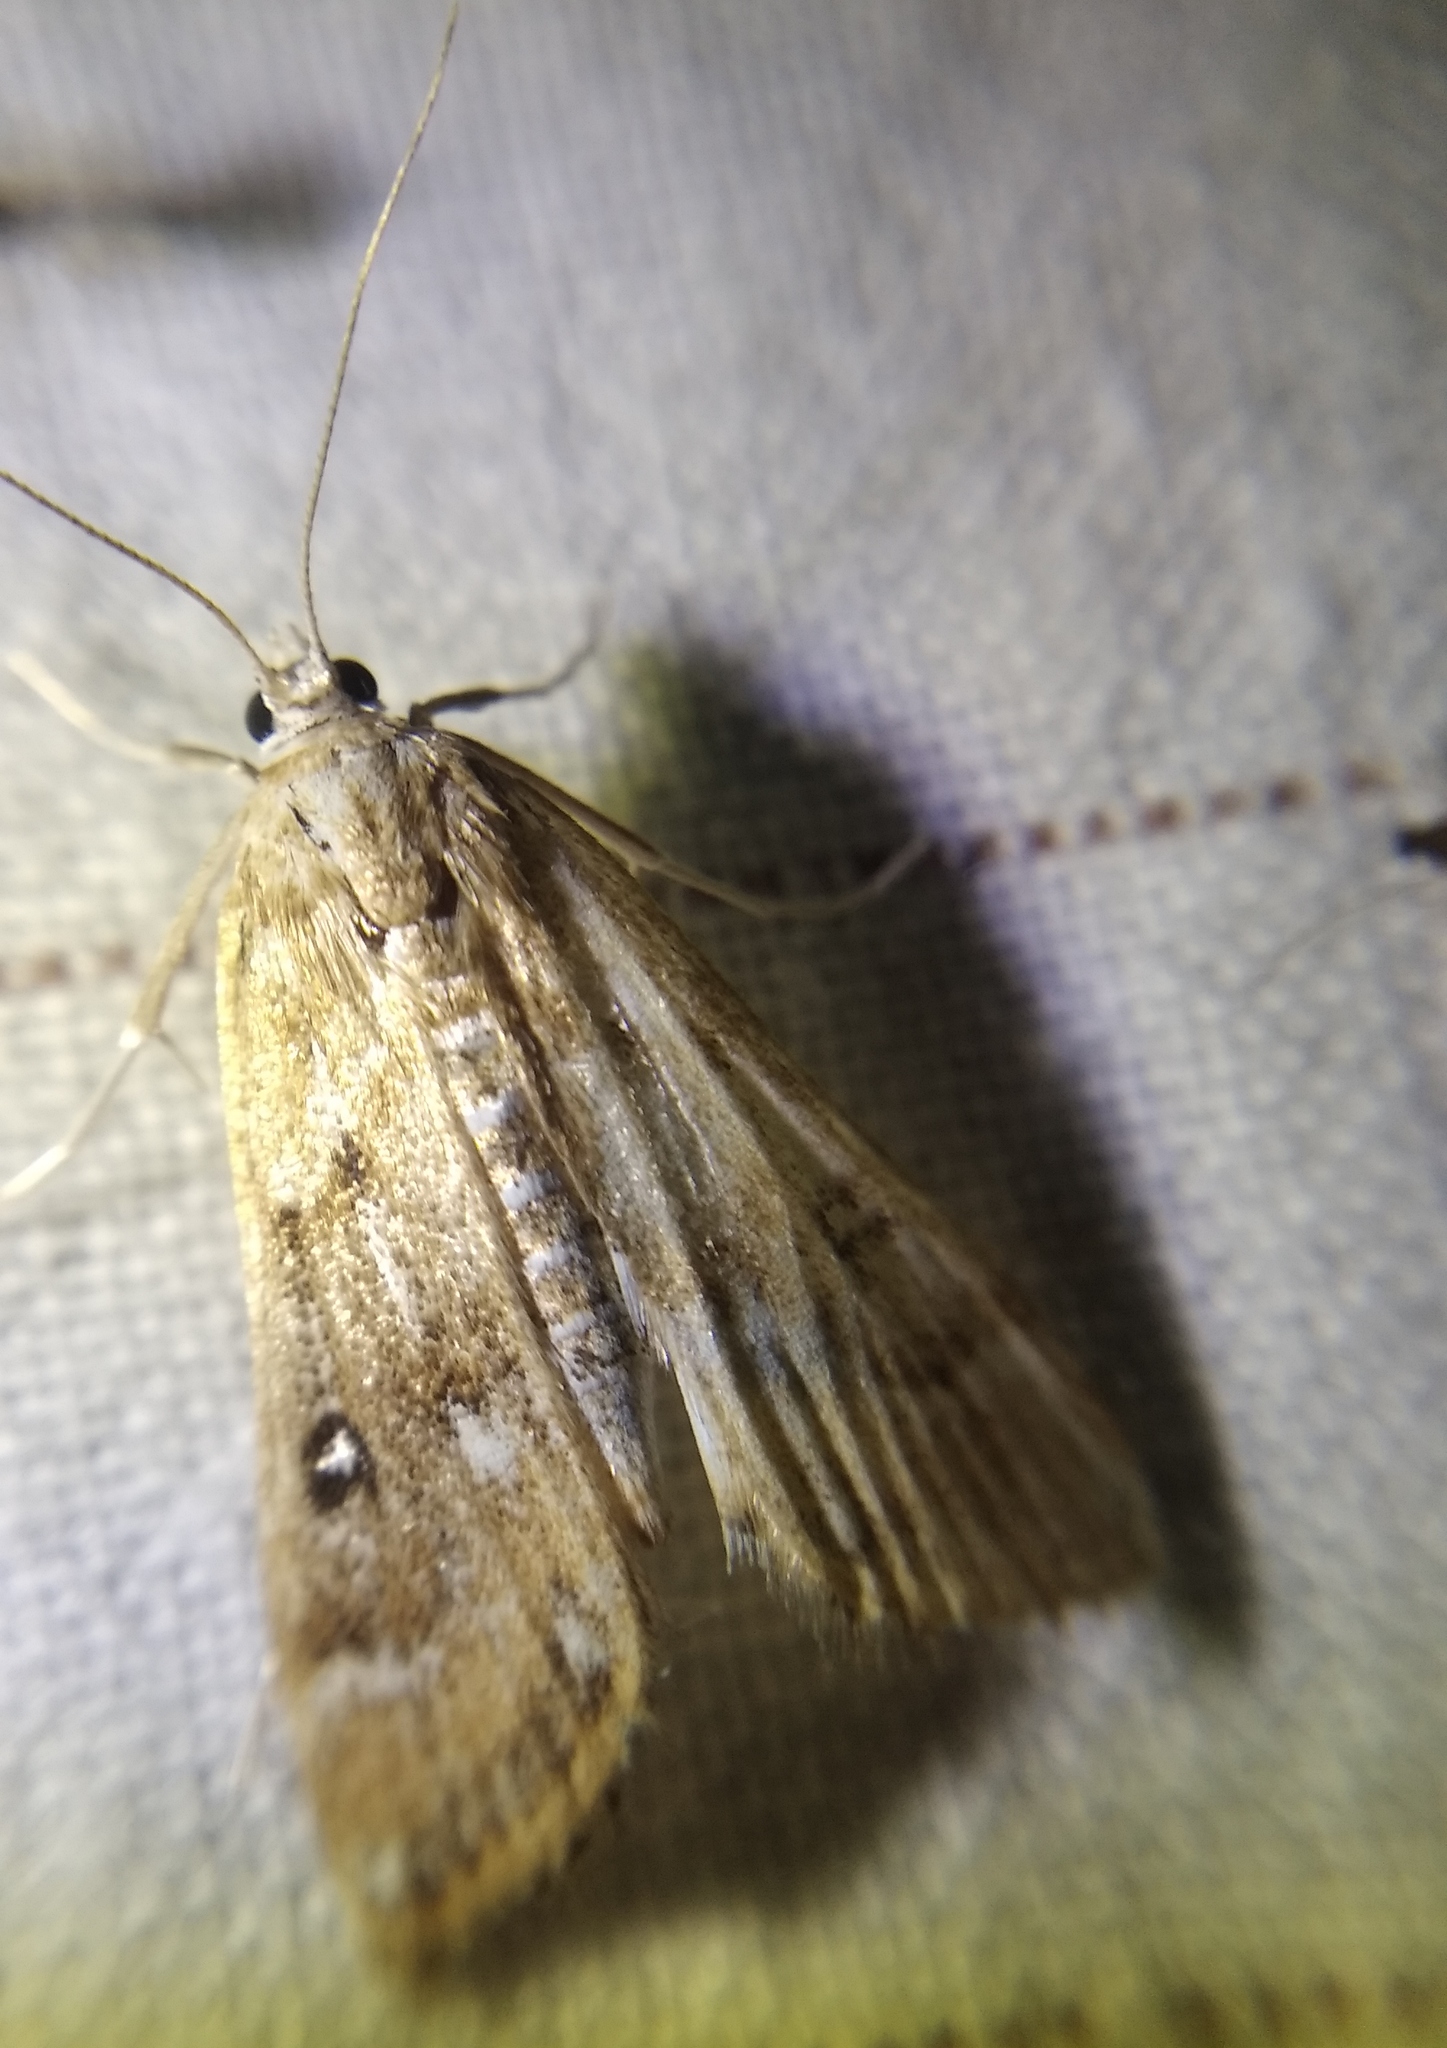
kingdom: Animalia
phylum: Arthropoda
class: Insecta
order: Lepidoptera
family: Crambidae
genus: Parapoynx
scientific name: Parapoynx stratiotata
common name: Ringed china-mark
